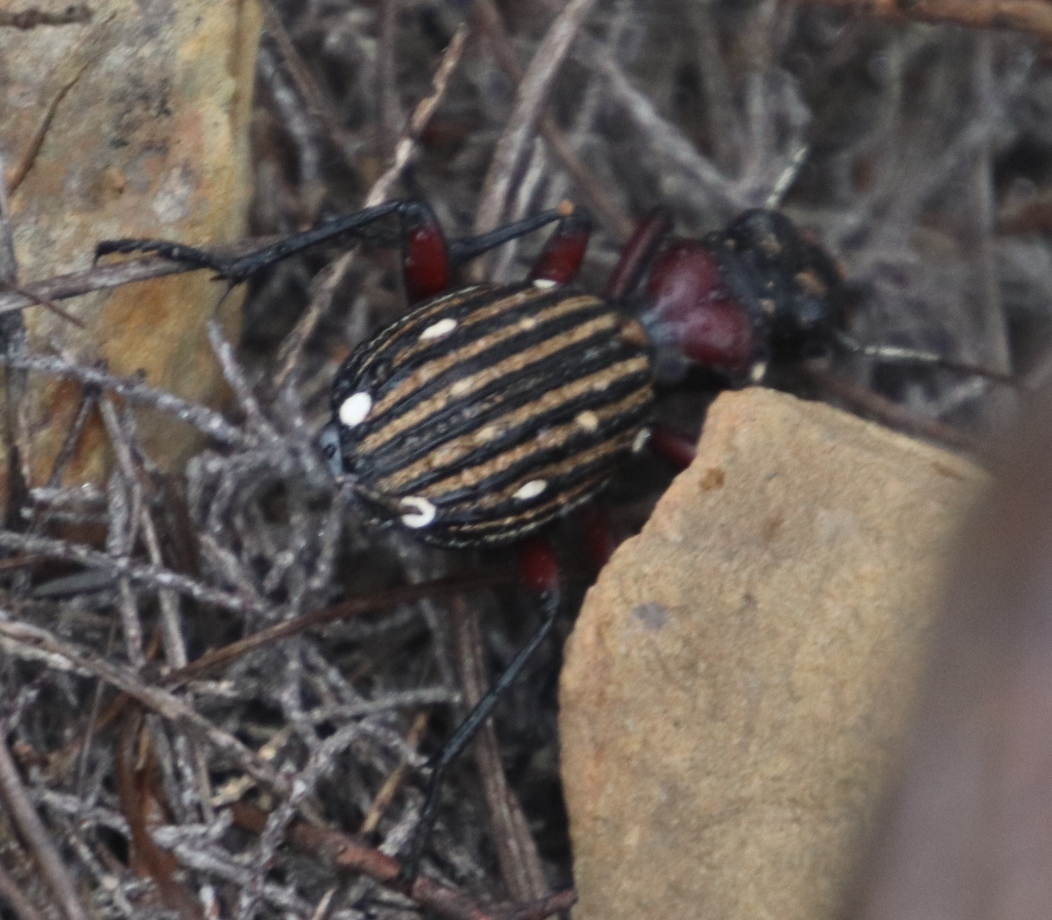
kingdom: Animalia
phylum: Arthropoda
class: Insecta
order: Coleoptera
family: Carabidae
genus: Anthia
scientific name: Anthia decemguttata
